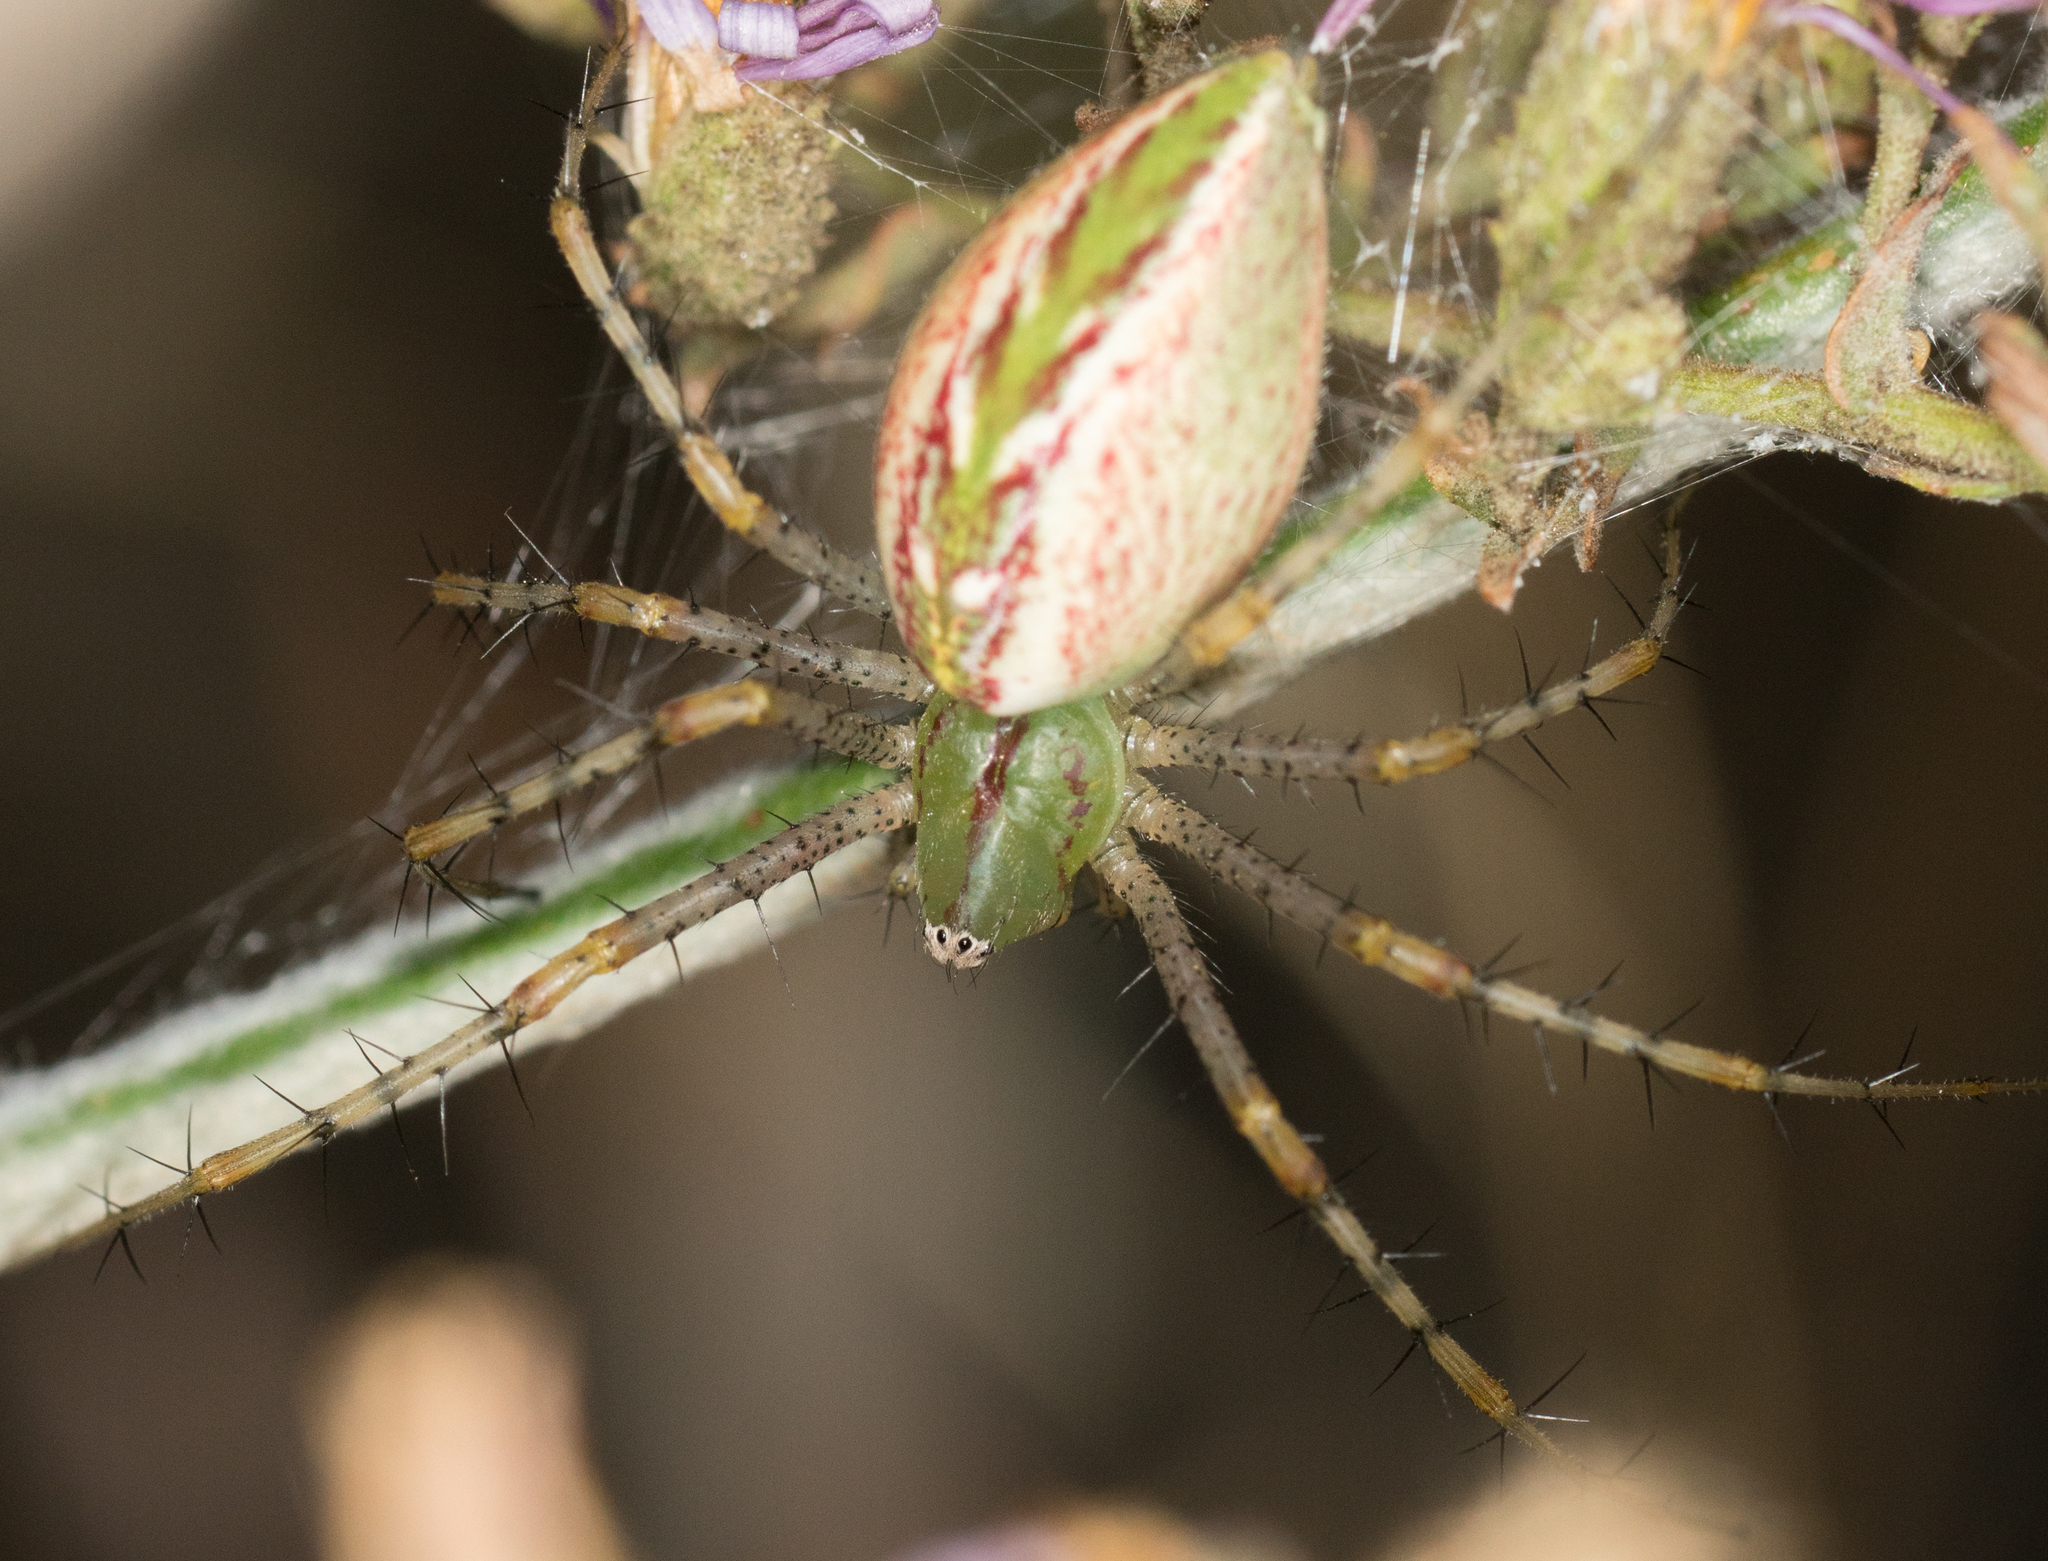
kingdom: Animalia
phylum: Arthropoda
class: Arachnida
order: Araneae
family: Oxyopidae
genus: Peucetia
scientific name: Peucetia viridans
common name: Lynx spiders
